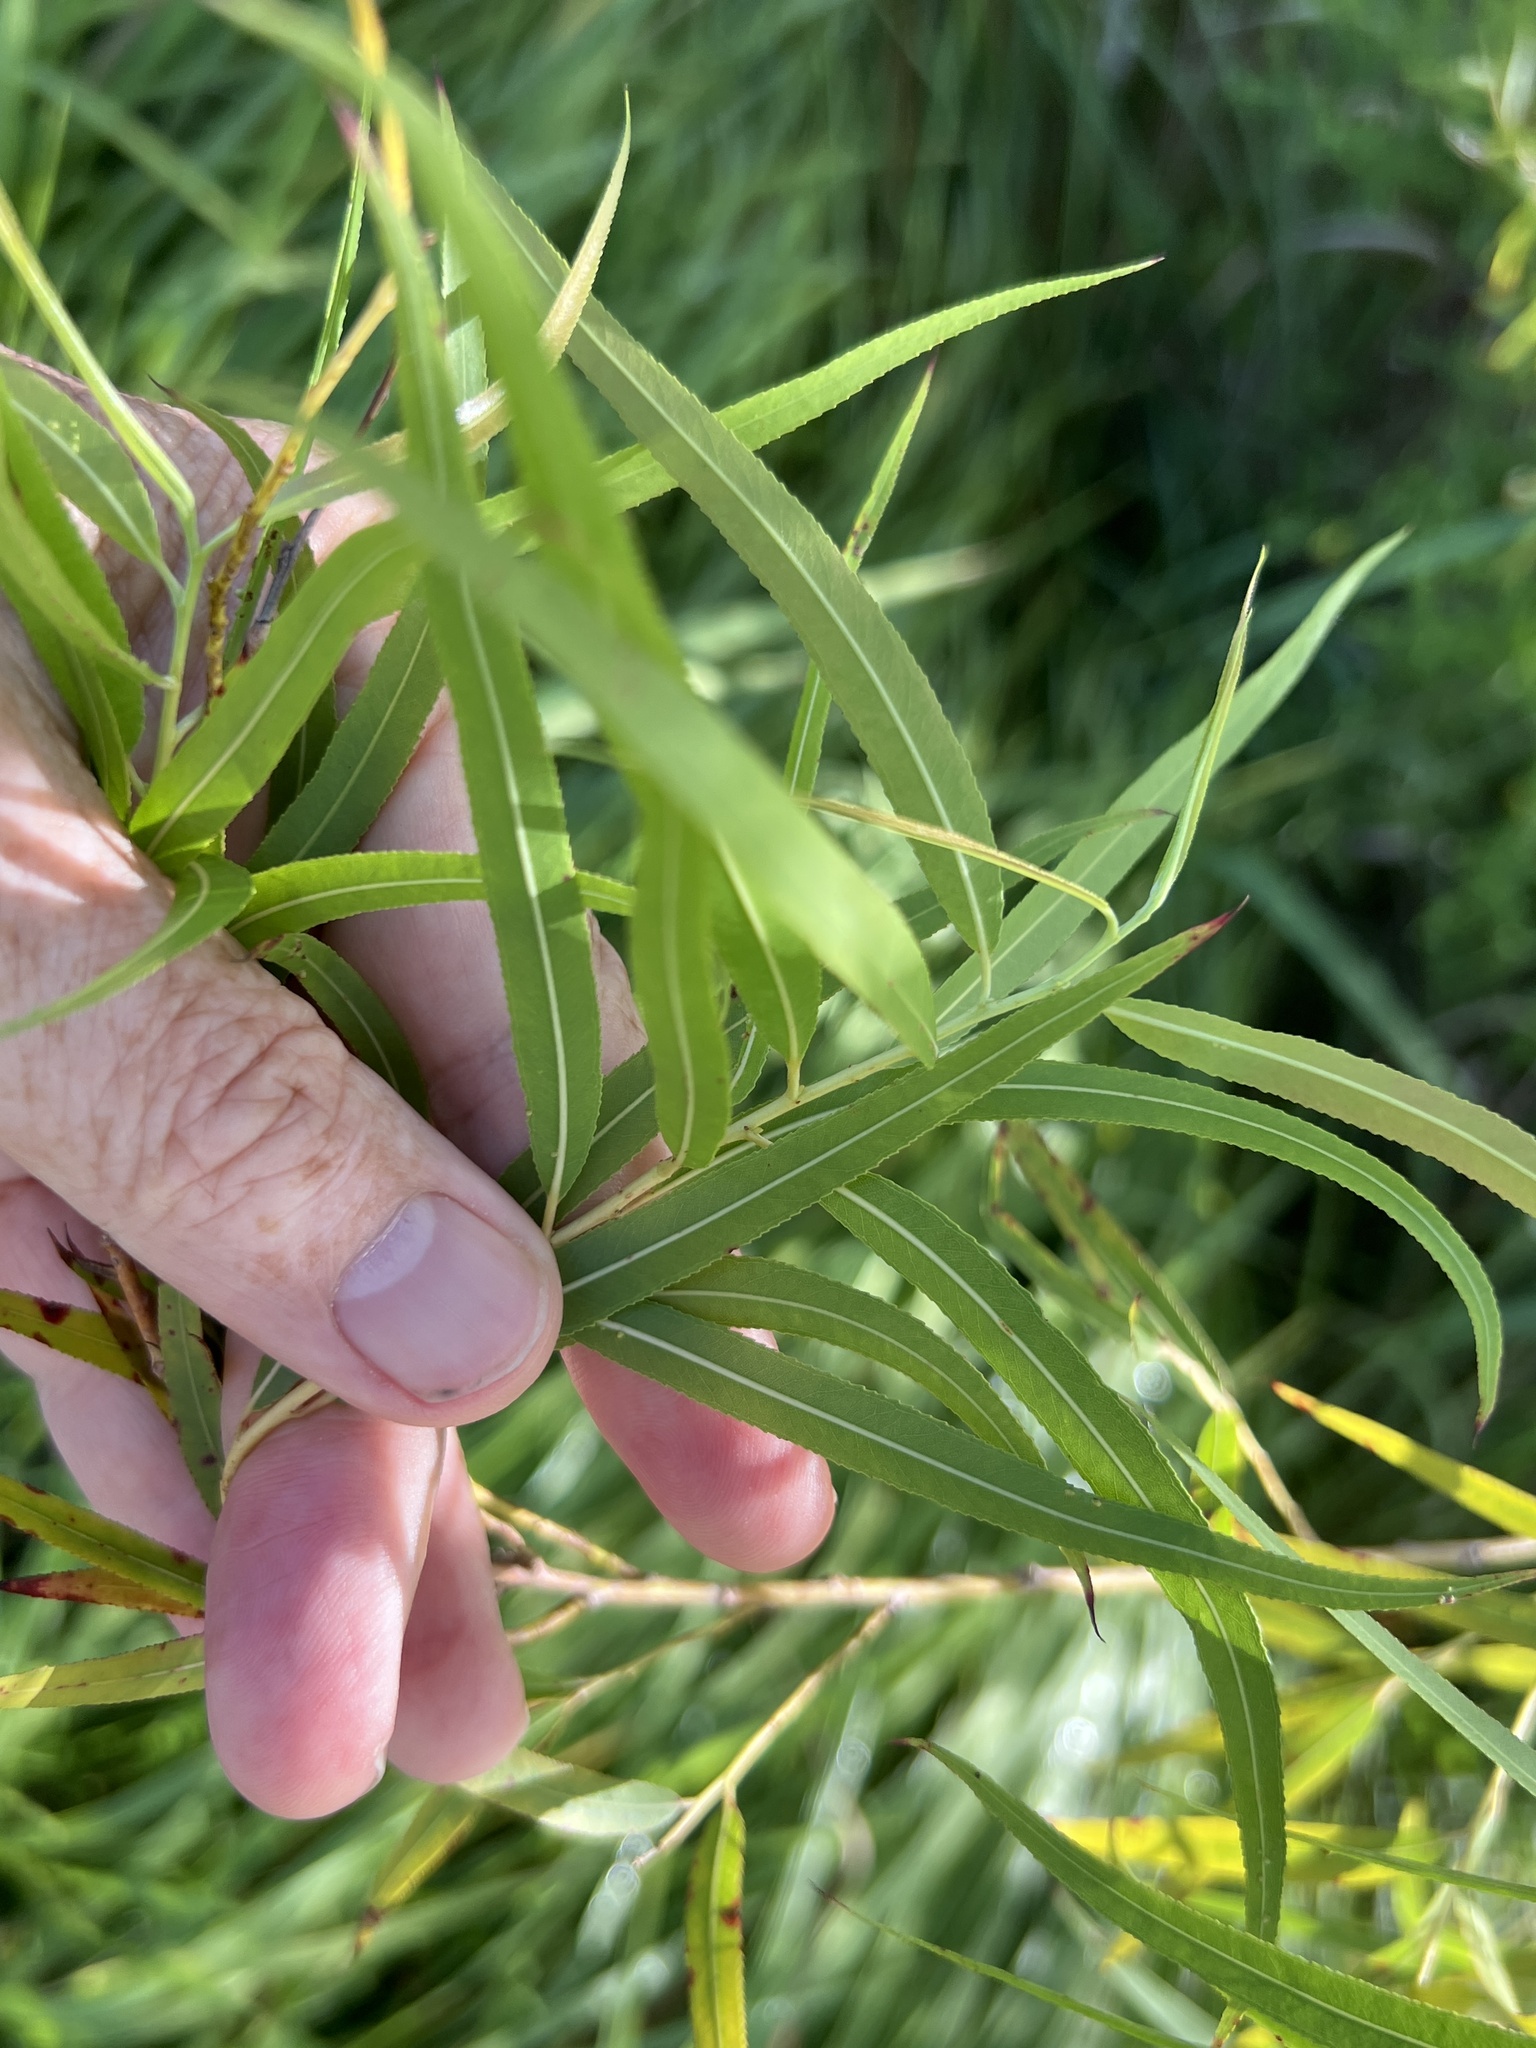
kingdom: Plantae
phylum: Tracheophyta
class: Magnoliopsida
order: Malpighiales
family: Salicaceae
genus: Salix
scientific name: Salix nigra
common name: Black willow
